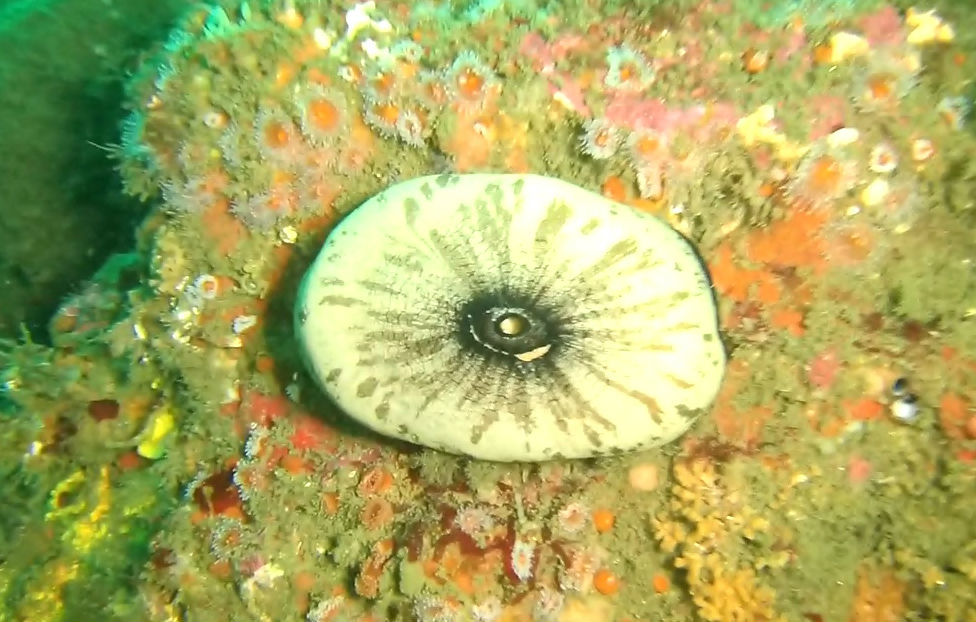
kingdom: Animalia
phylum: Mollusca
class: Gastropoda
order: Lepetellida
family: Fissurellidae
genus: Megathura
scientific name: Megathura crenulata
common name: Giant keyhole limpet
